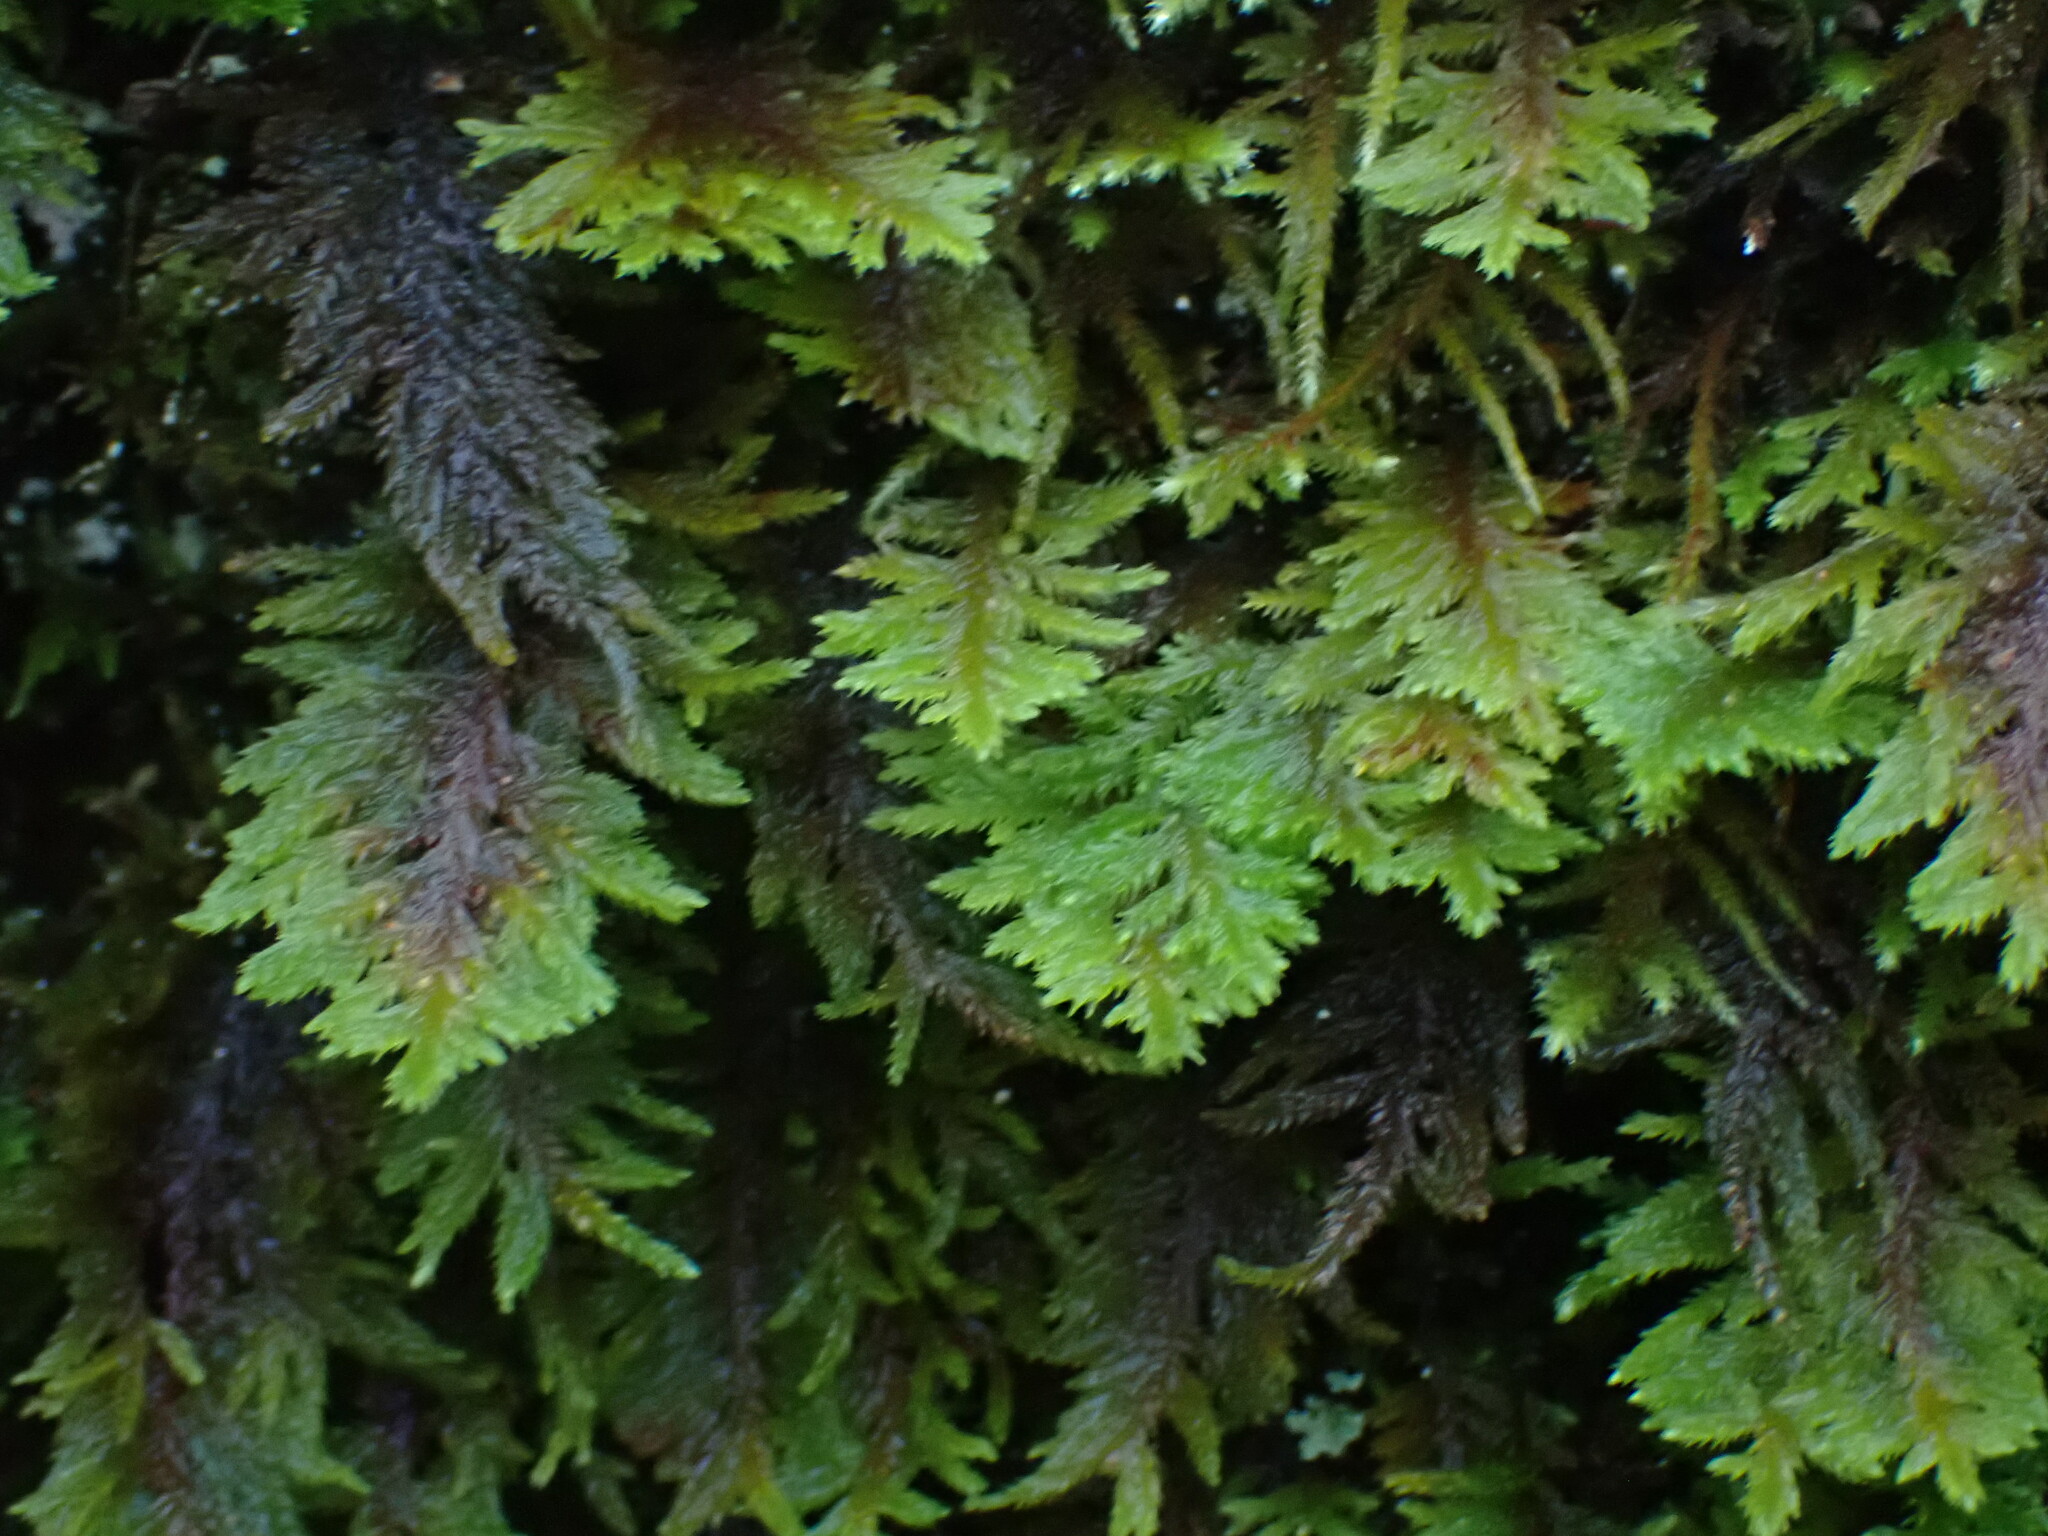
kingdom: Plantae
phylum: Bryophyta
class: Bryopsida
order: Hypnales
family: Cryphaeaceae
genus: Dendroalsia
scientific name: Dendroalsia abietina
